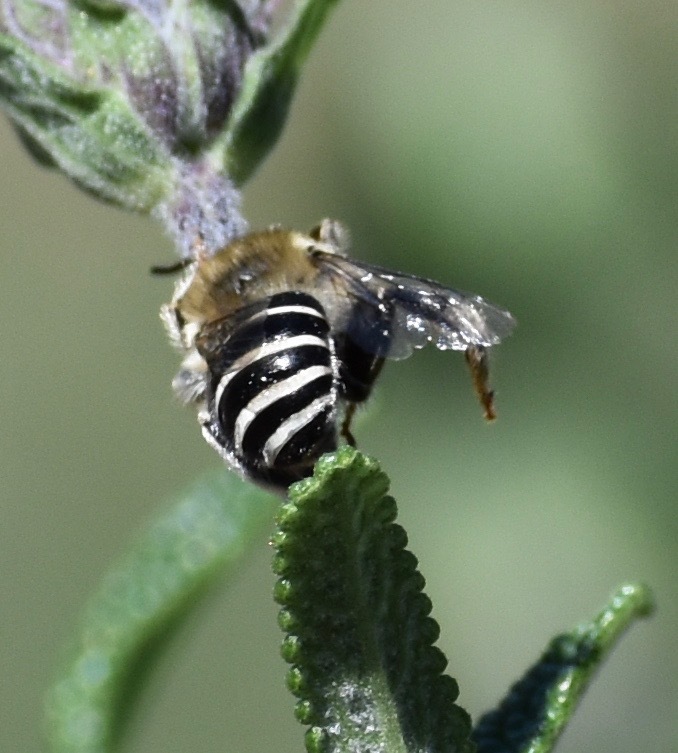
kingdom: Animalia
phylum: Arthropoda
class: Insecta
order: Hymenoptera
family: Apidae
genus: Anthophora
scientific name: Anthophora californica
